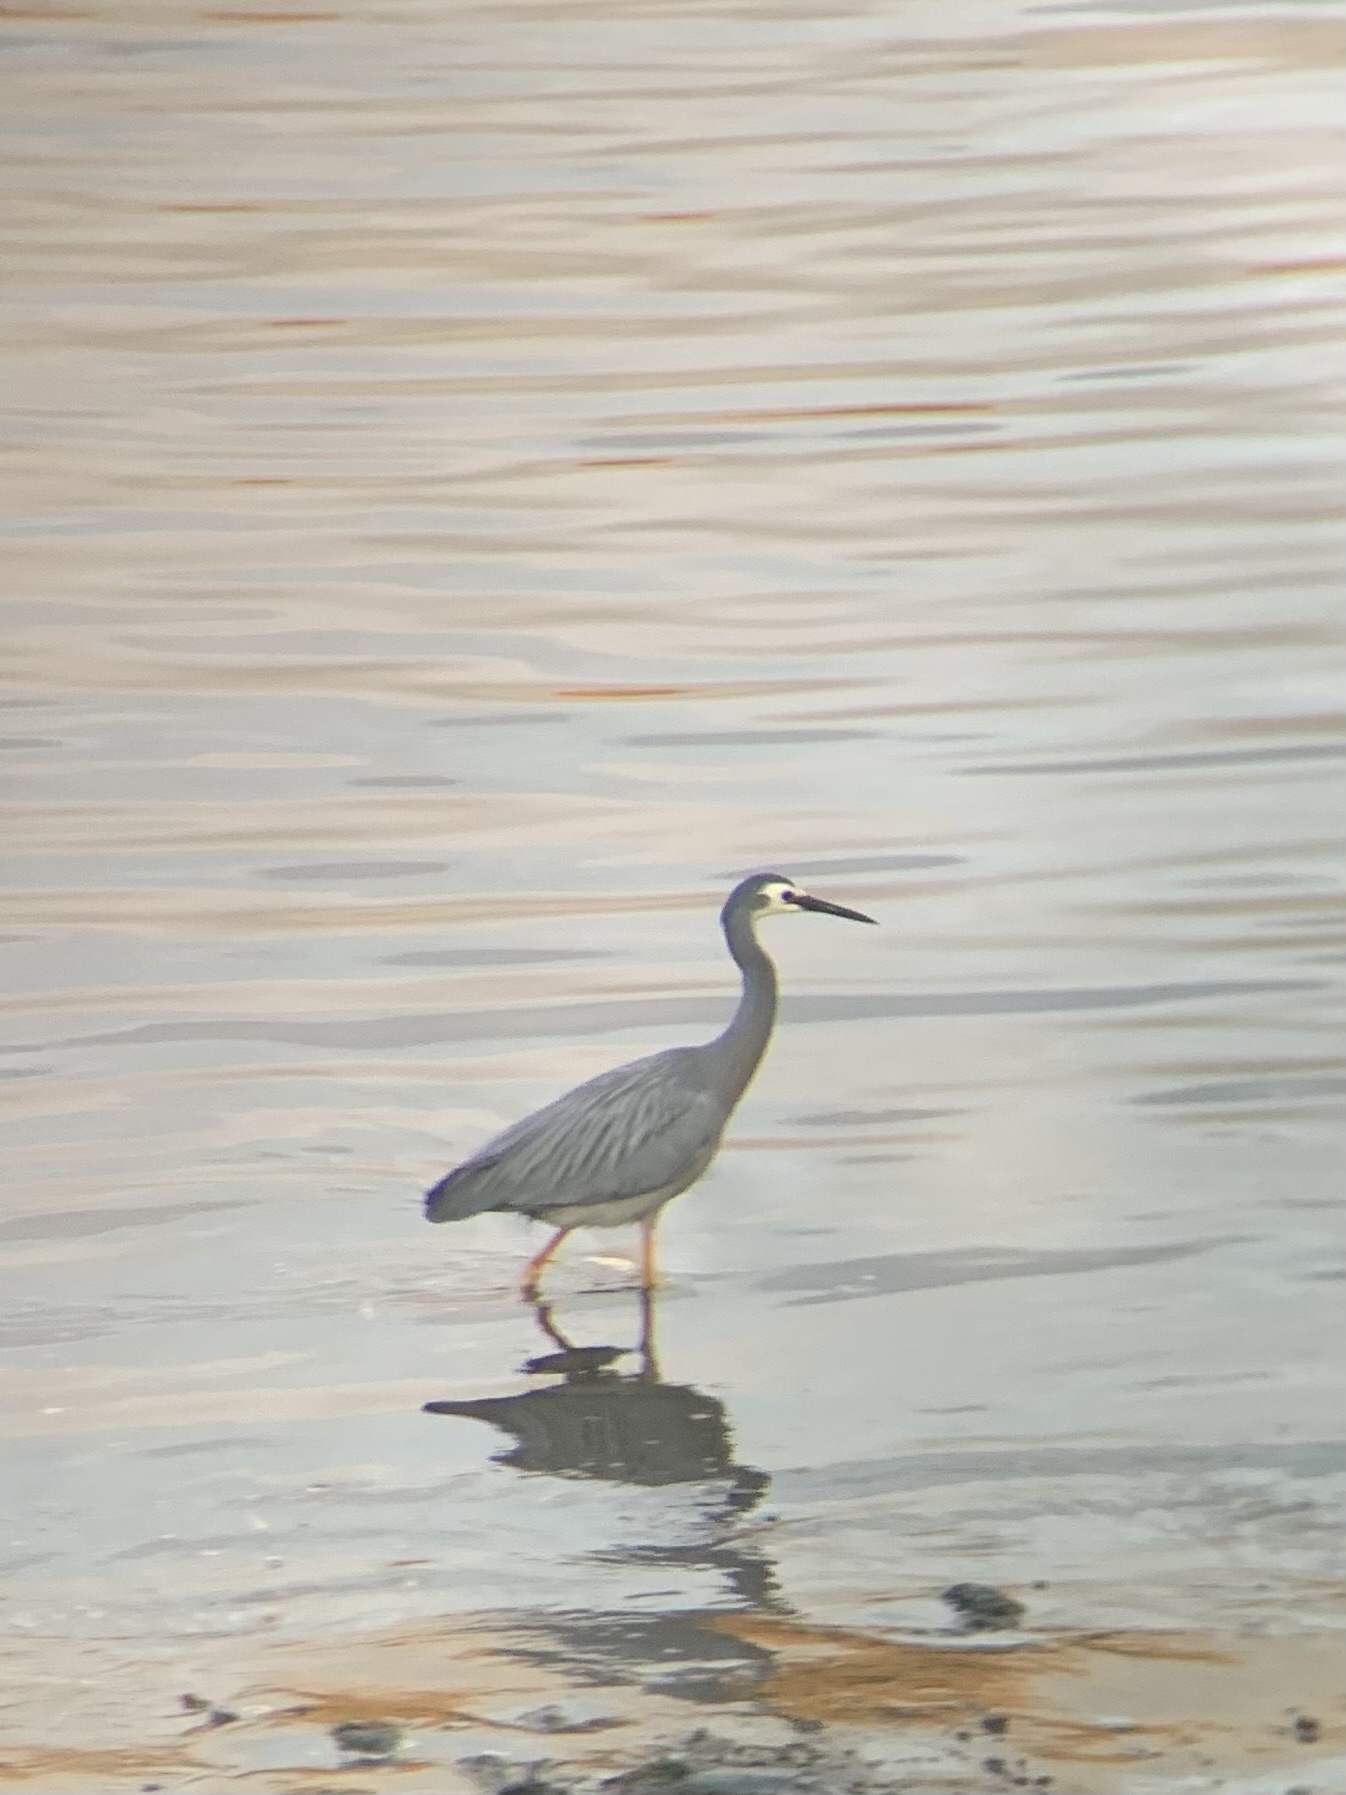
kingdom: Animalia
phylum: Chordata
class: Aves
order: Pelecaniformes
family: Ardeidae
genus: Egretta
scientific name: Egretta novaehollandiae
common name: White-faced heron
